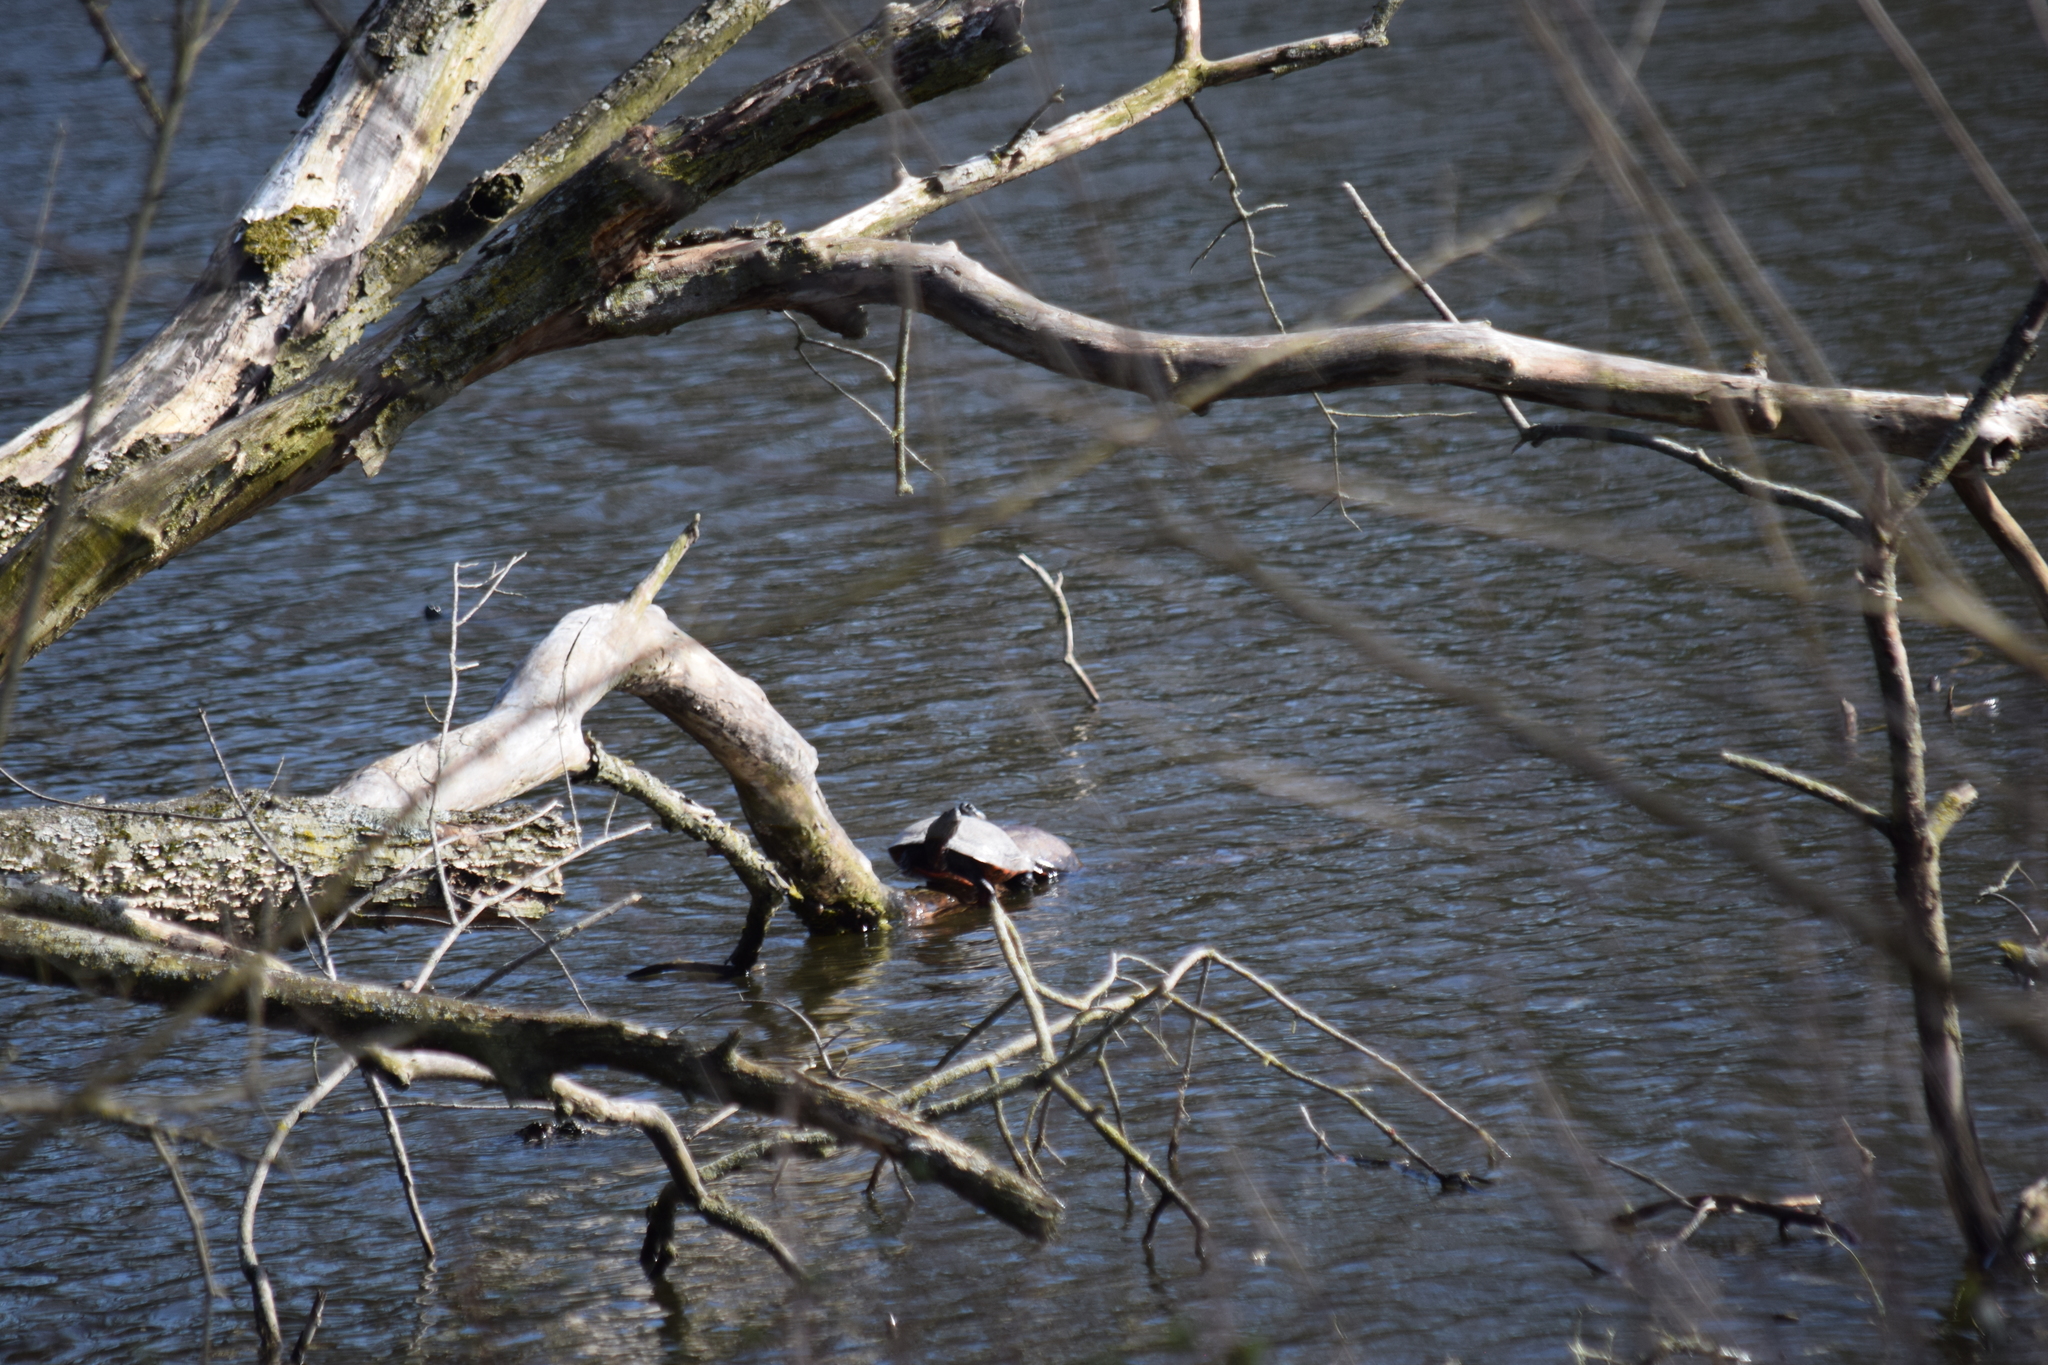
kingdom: Animalia
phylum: Chordata
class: Testudines
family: Emydidae
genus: Pseudemys
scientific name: Pseudemys rubriventris
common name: American red-bellied turtle
